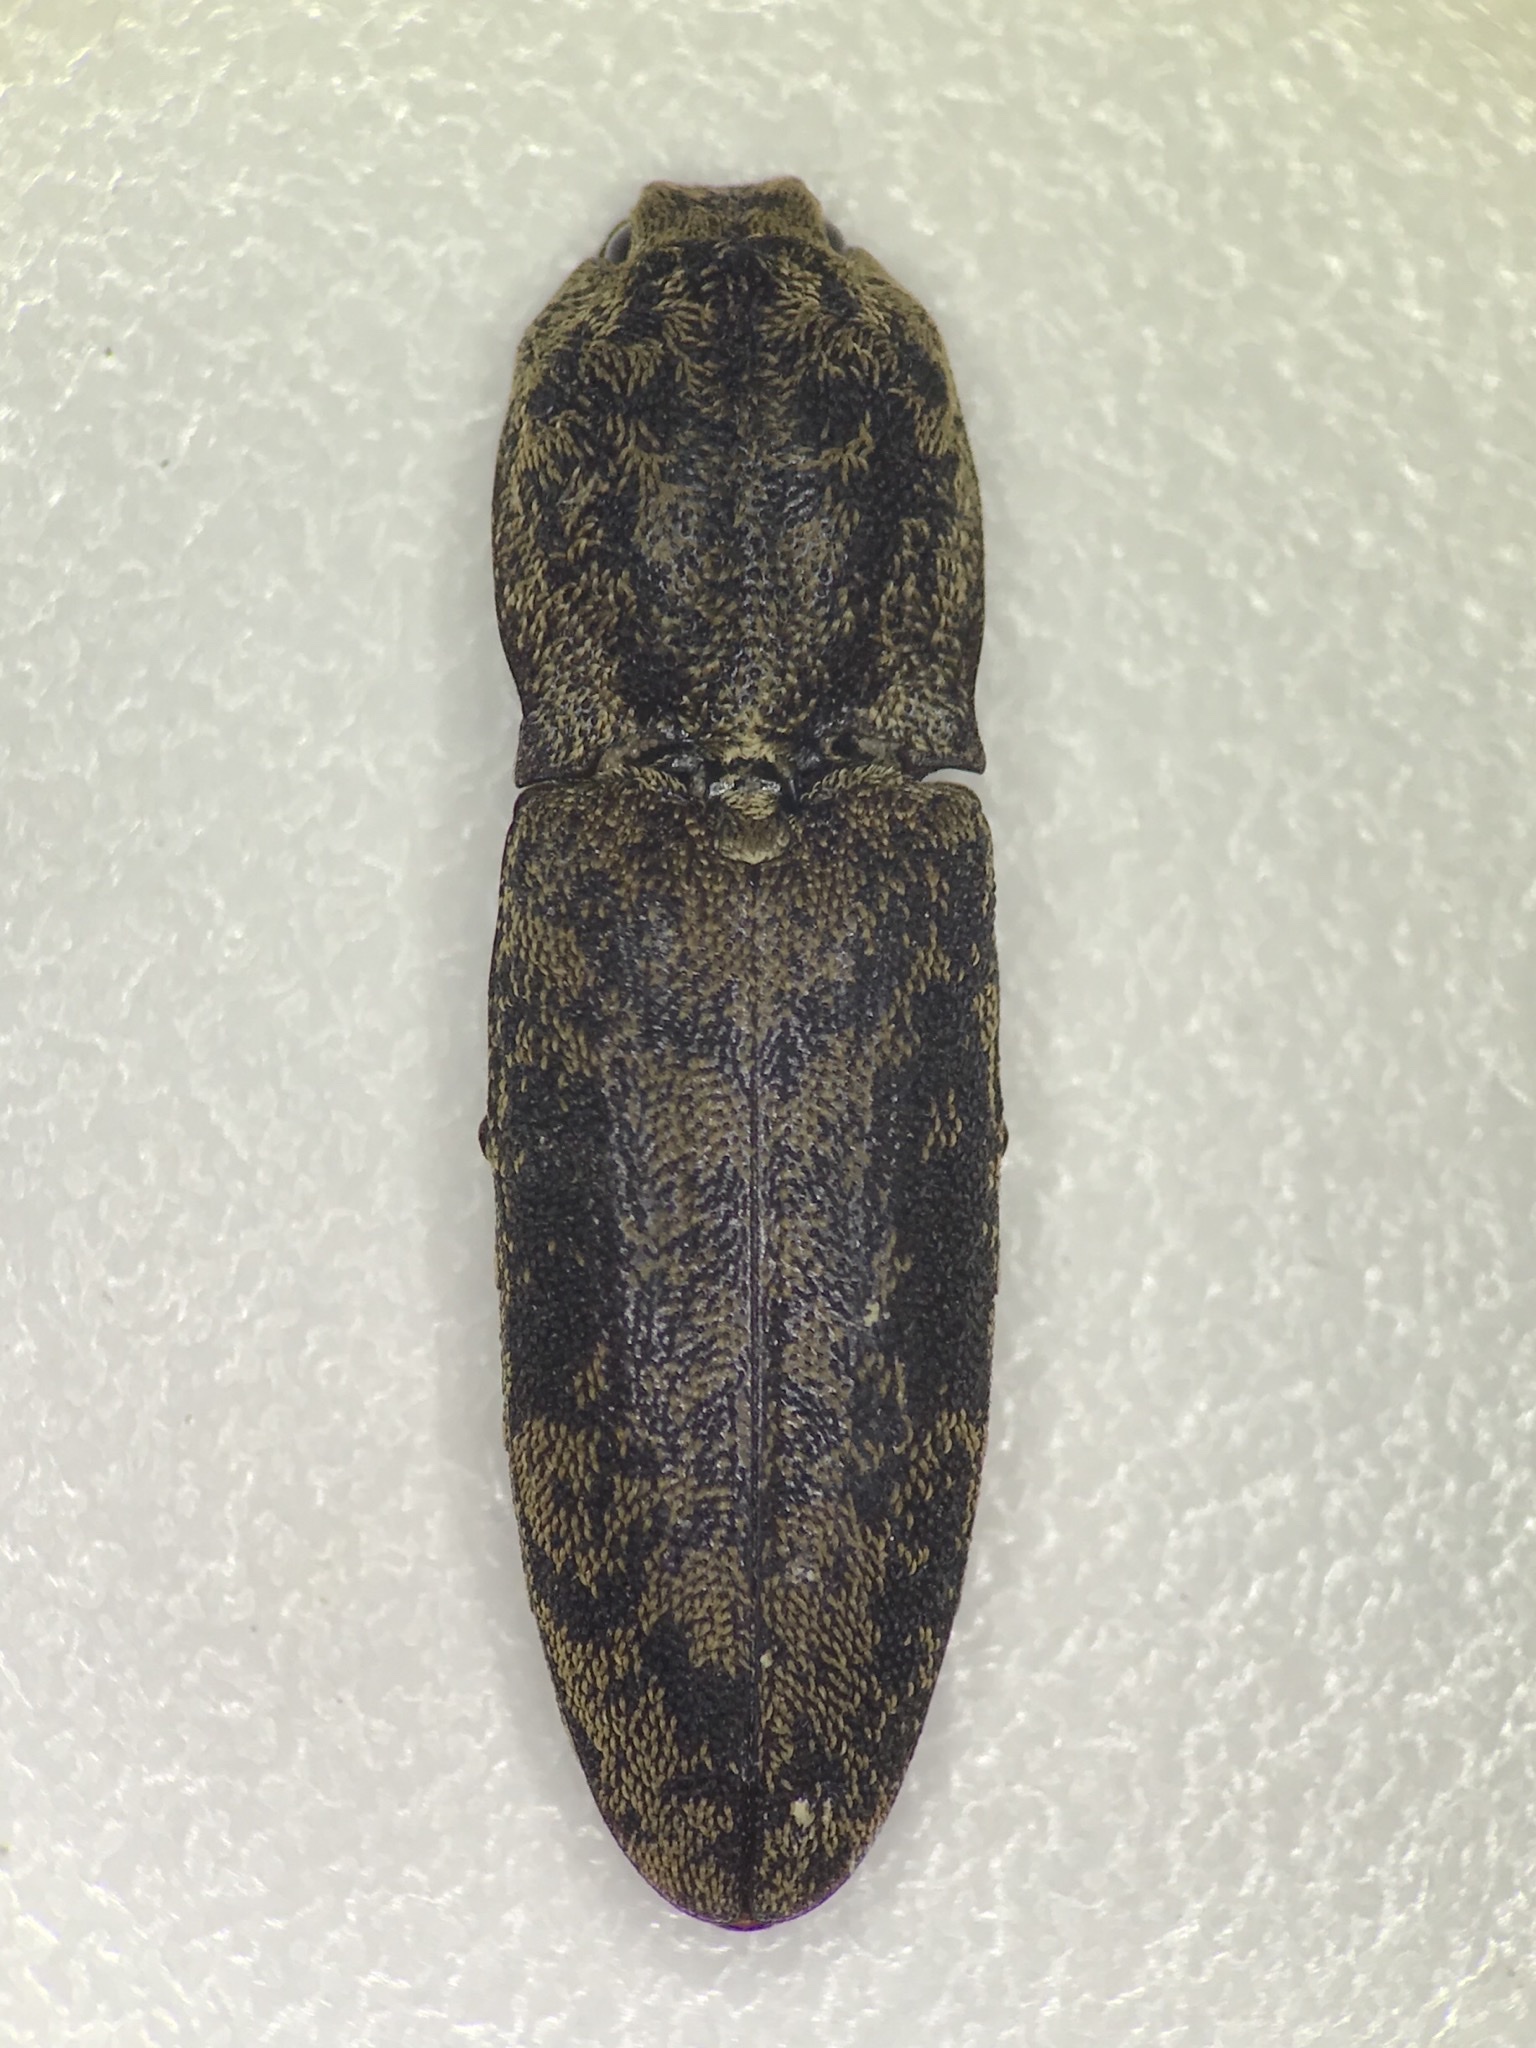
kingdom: Animalia
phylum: Arthropoda
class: Insecta
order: Coleoptera
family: Elateridae
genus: Lacon
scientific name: Lacon marmoratus
